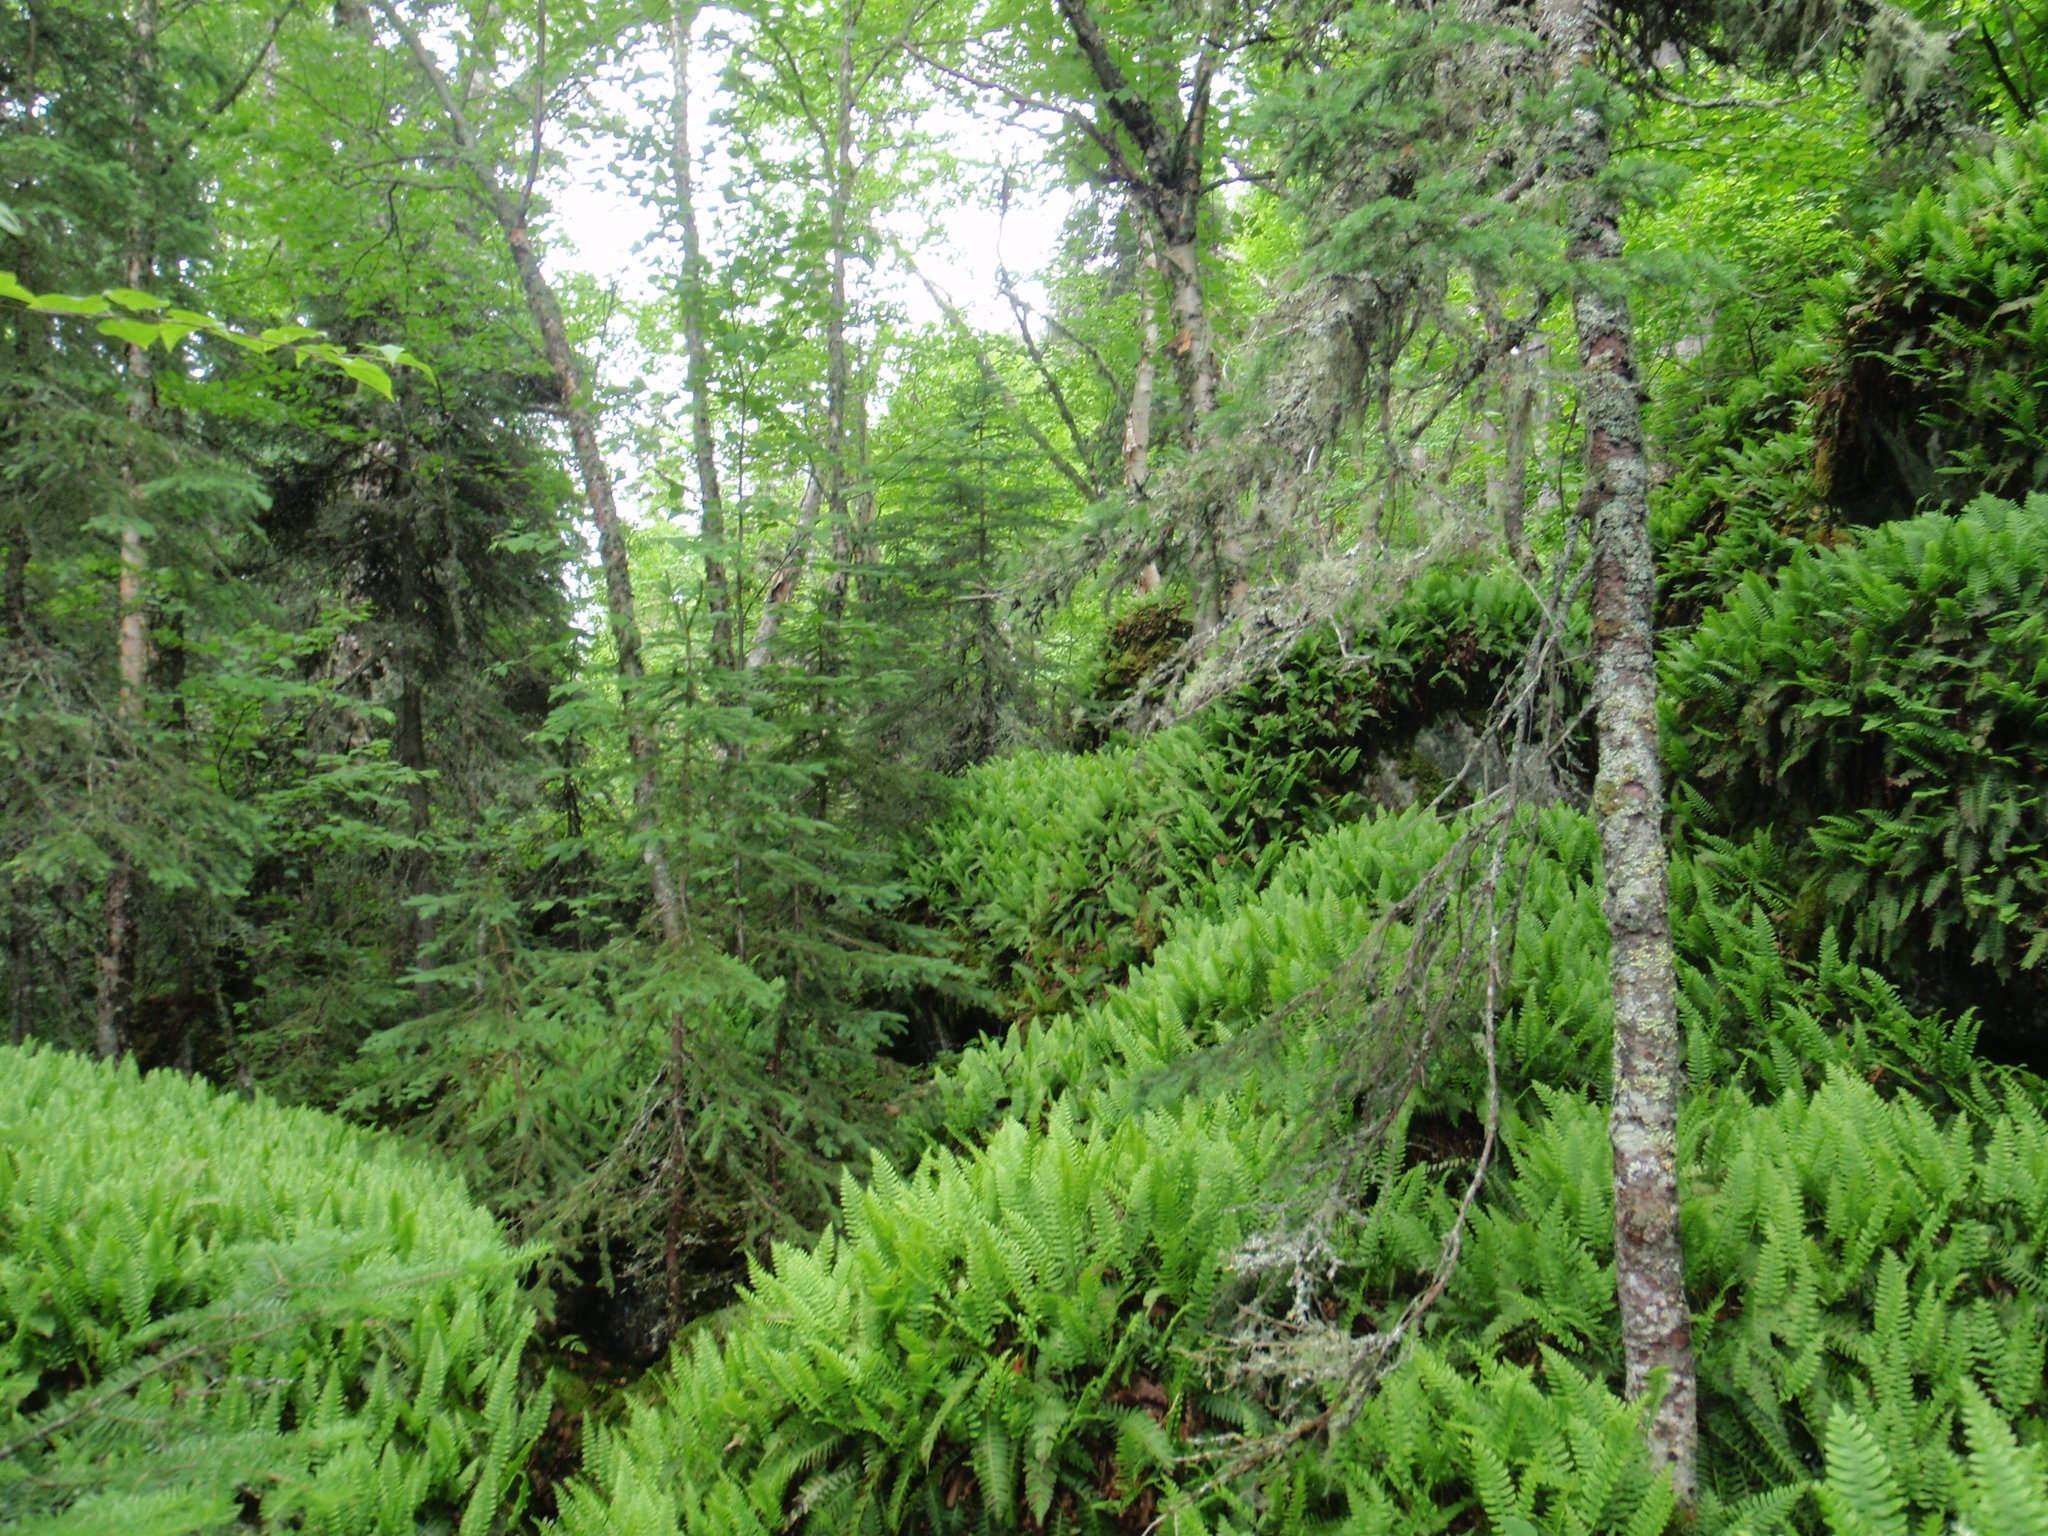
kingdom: Plantae
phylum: Tracheophyta
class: Polypodiopsida
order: Polypodiales
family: Polypodiaceae
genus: Polypodium
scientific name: Polypodium virginianum
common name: American wall fern
